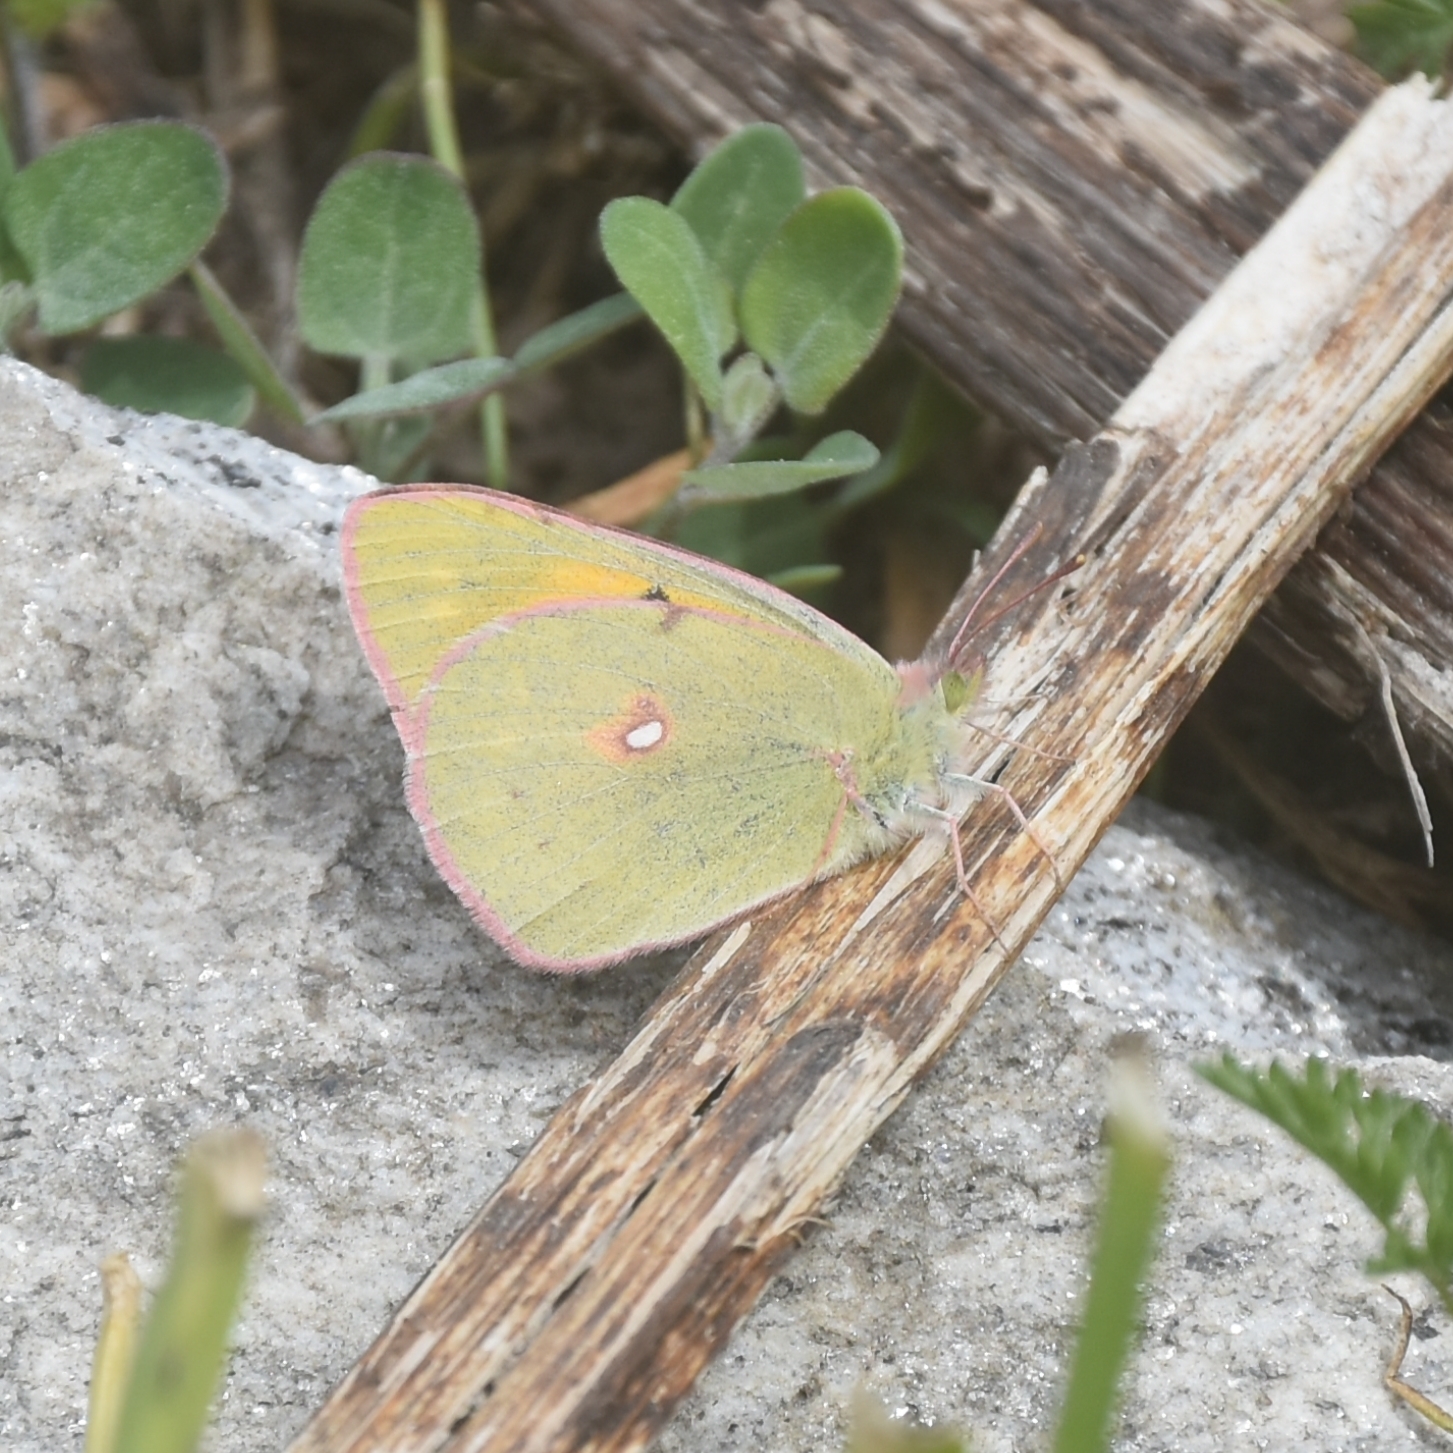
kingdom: Animalia
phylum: Arthropoda
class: Insecta
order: Lepidoptera
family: Pieridae
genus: Colias
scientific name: Colias fieldii
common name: Dark clouded yellow
